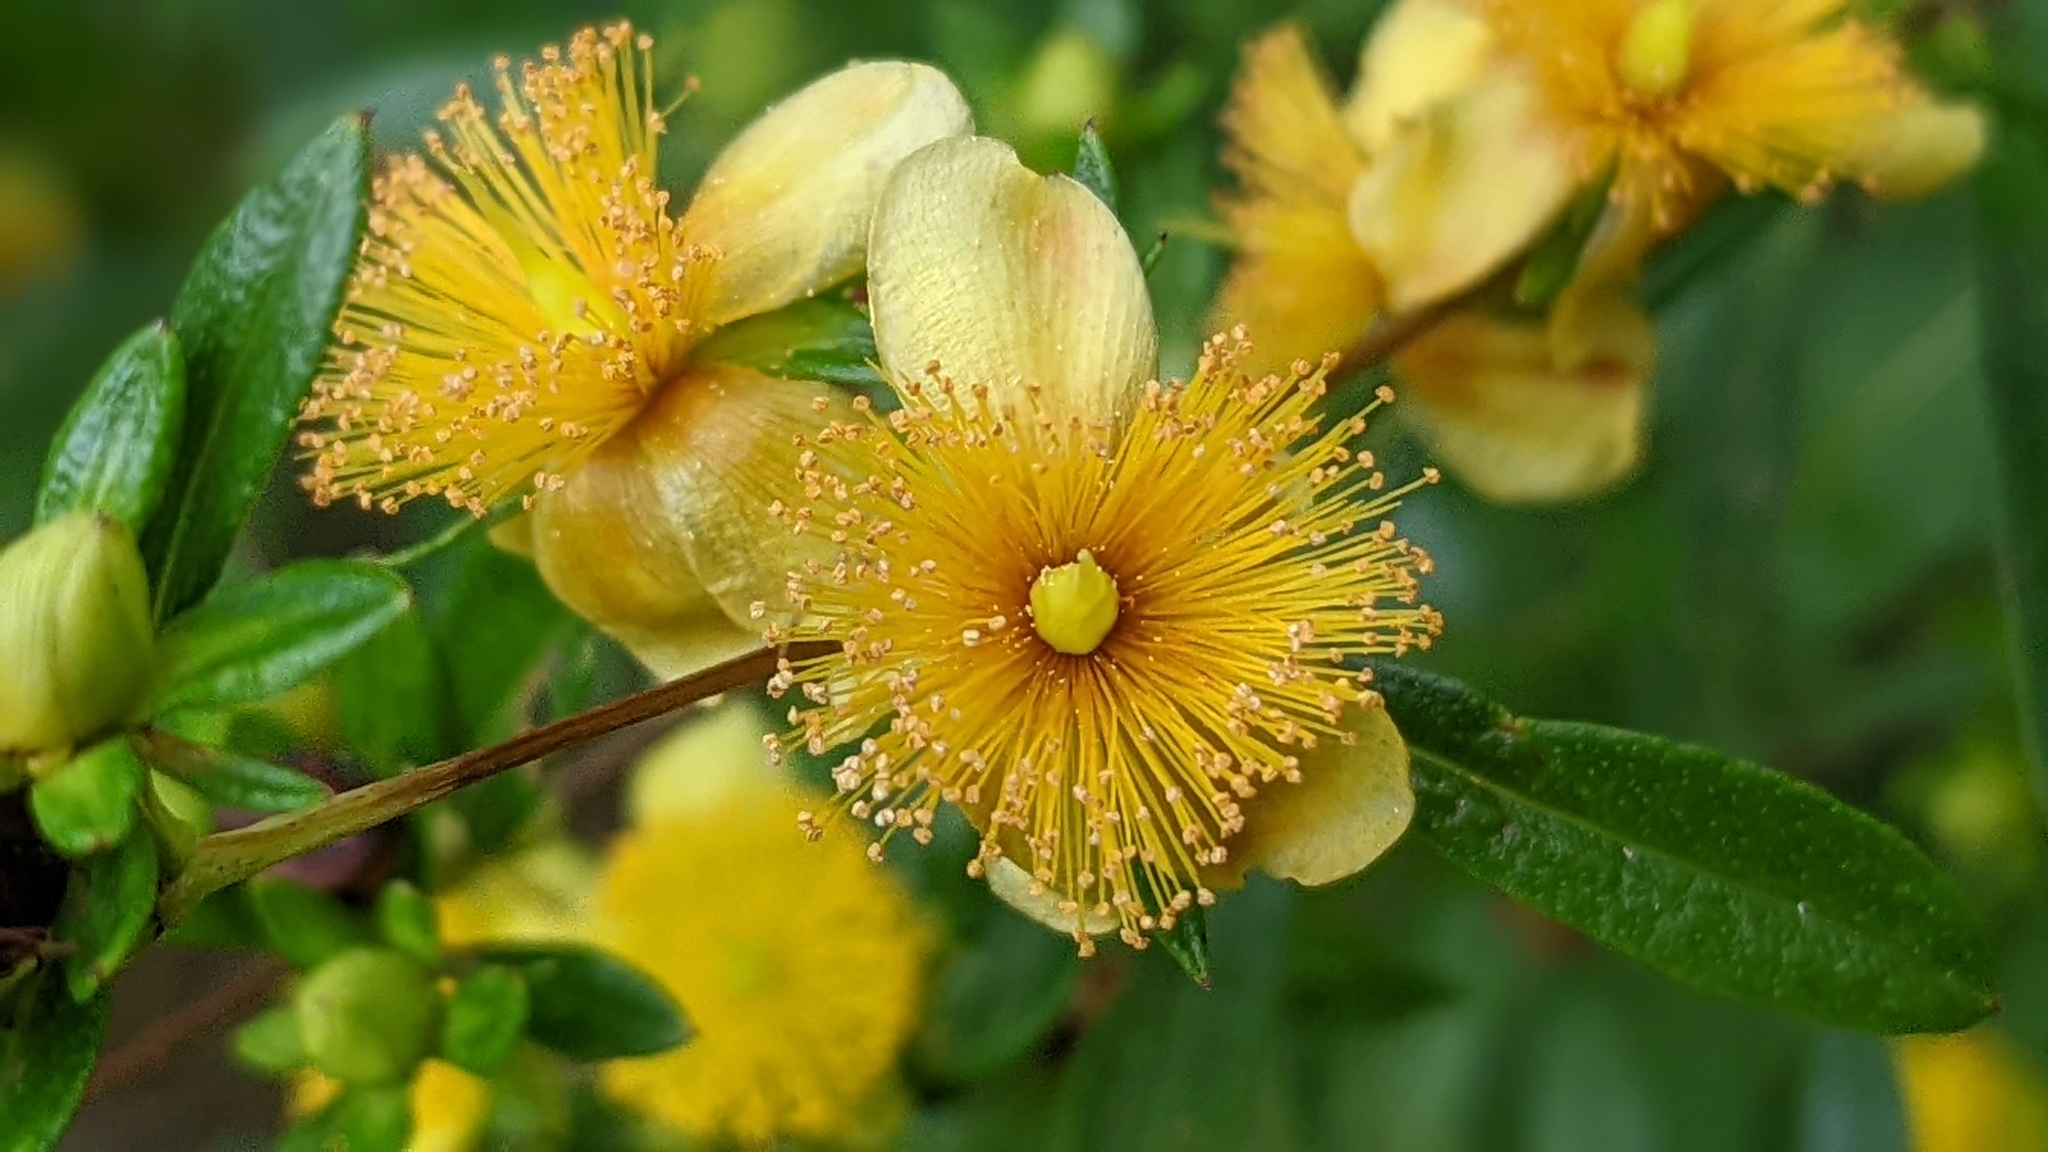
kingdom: Plantae
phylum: Tracheophyta
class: Magnoliopsida
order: Malpighiales
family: Hypericaceae
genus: Hypericum
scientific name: Hypericum prolificum
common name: Shrubby st. john's-wort
